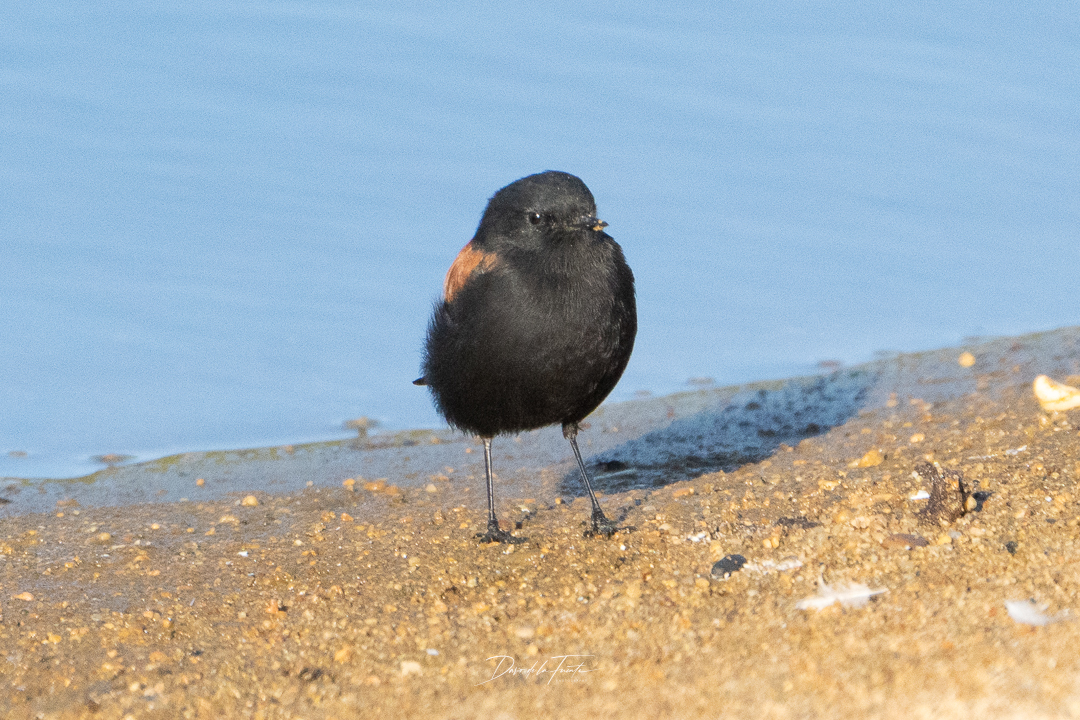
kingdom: Animalia
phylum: Chordata
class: Aves
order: Passeriformes
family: Tyrannidae
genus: Lessonia
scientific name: Lessonia rufa
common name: Austral negrito
